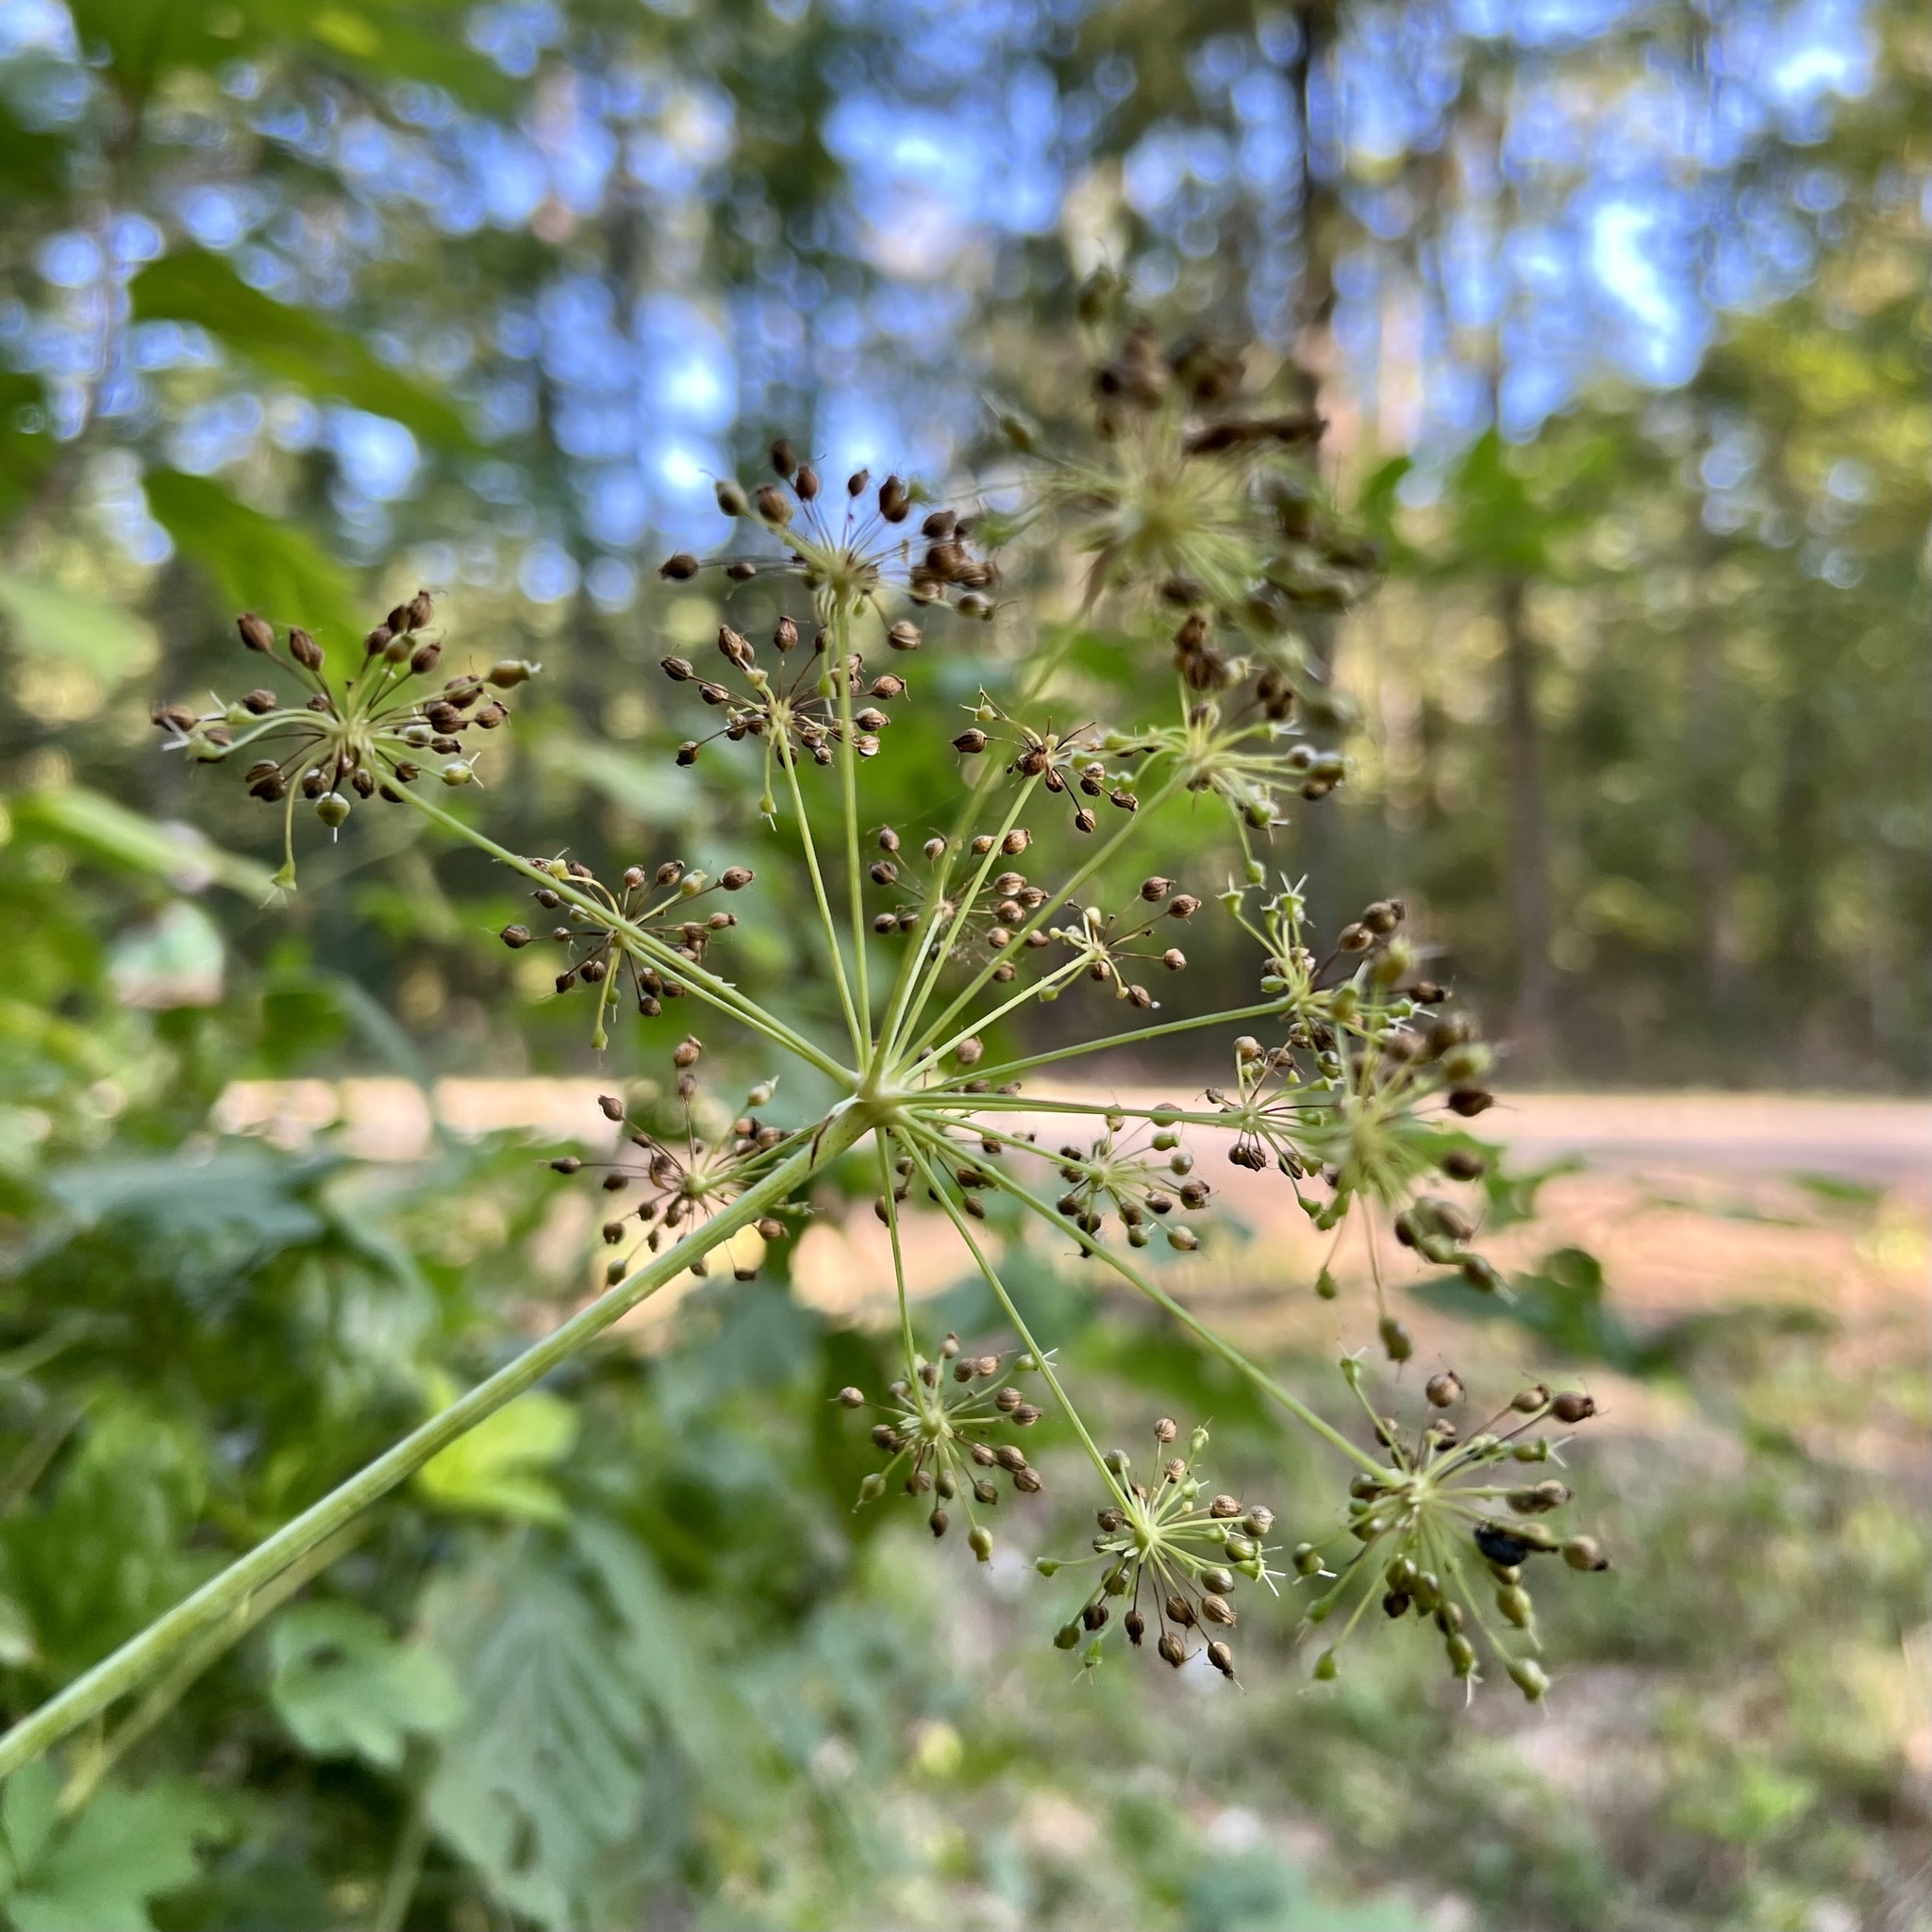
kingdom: Plantae
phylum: Tracheophyta
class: Magnoliopsida
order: Apiales
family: Apiaceae
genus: Cicuta
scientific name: Cicuta maculata
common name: Spotted cowbane
